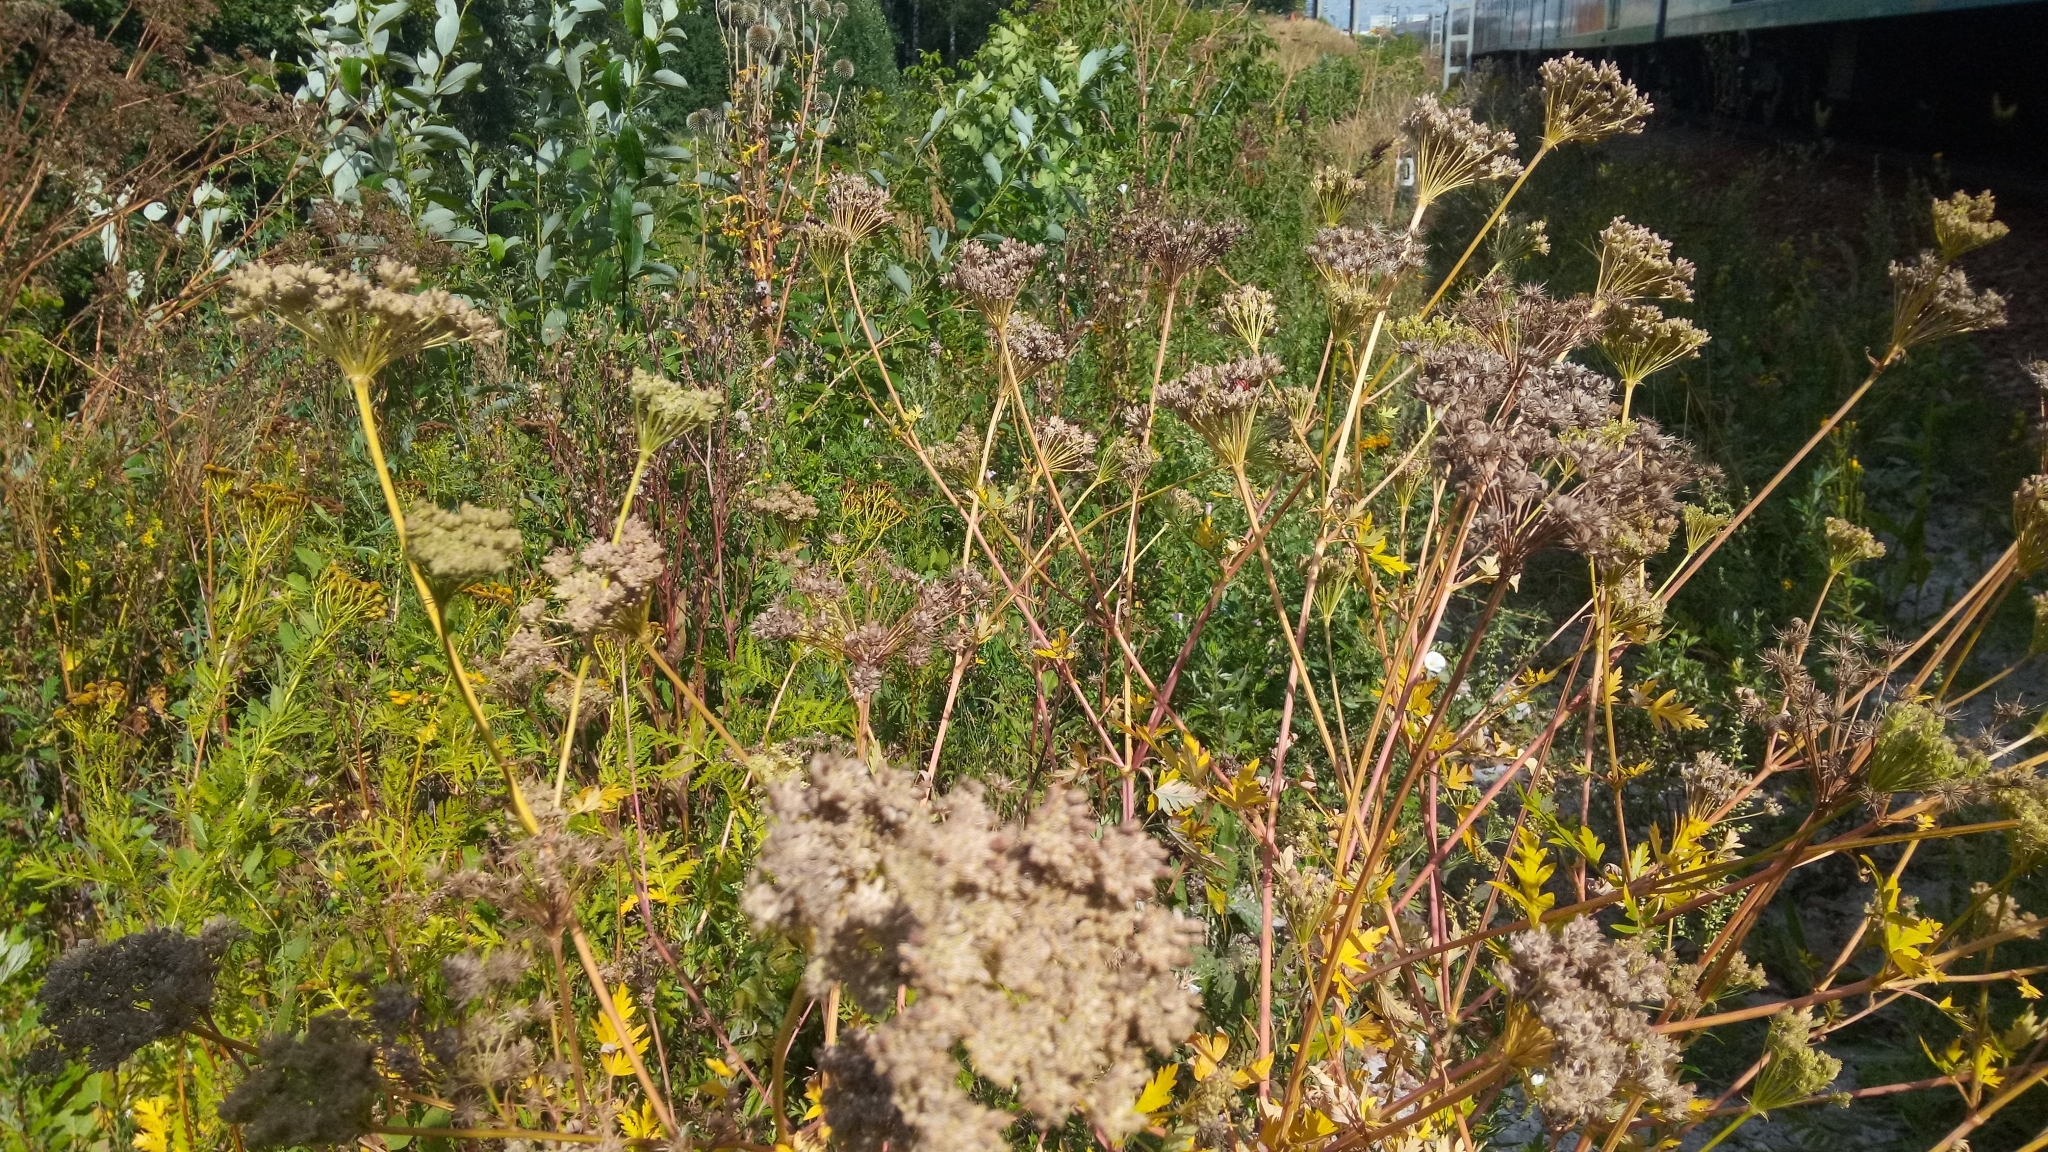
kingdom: Plantae
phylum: Tracheophyta
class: Magnoliopsida
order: Apiales
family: Apiaceae
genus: Seseli
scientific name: Seseli libanotis
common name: Mooncarrot
